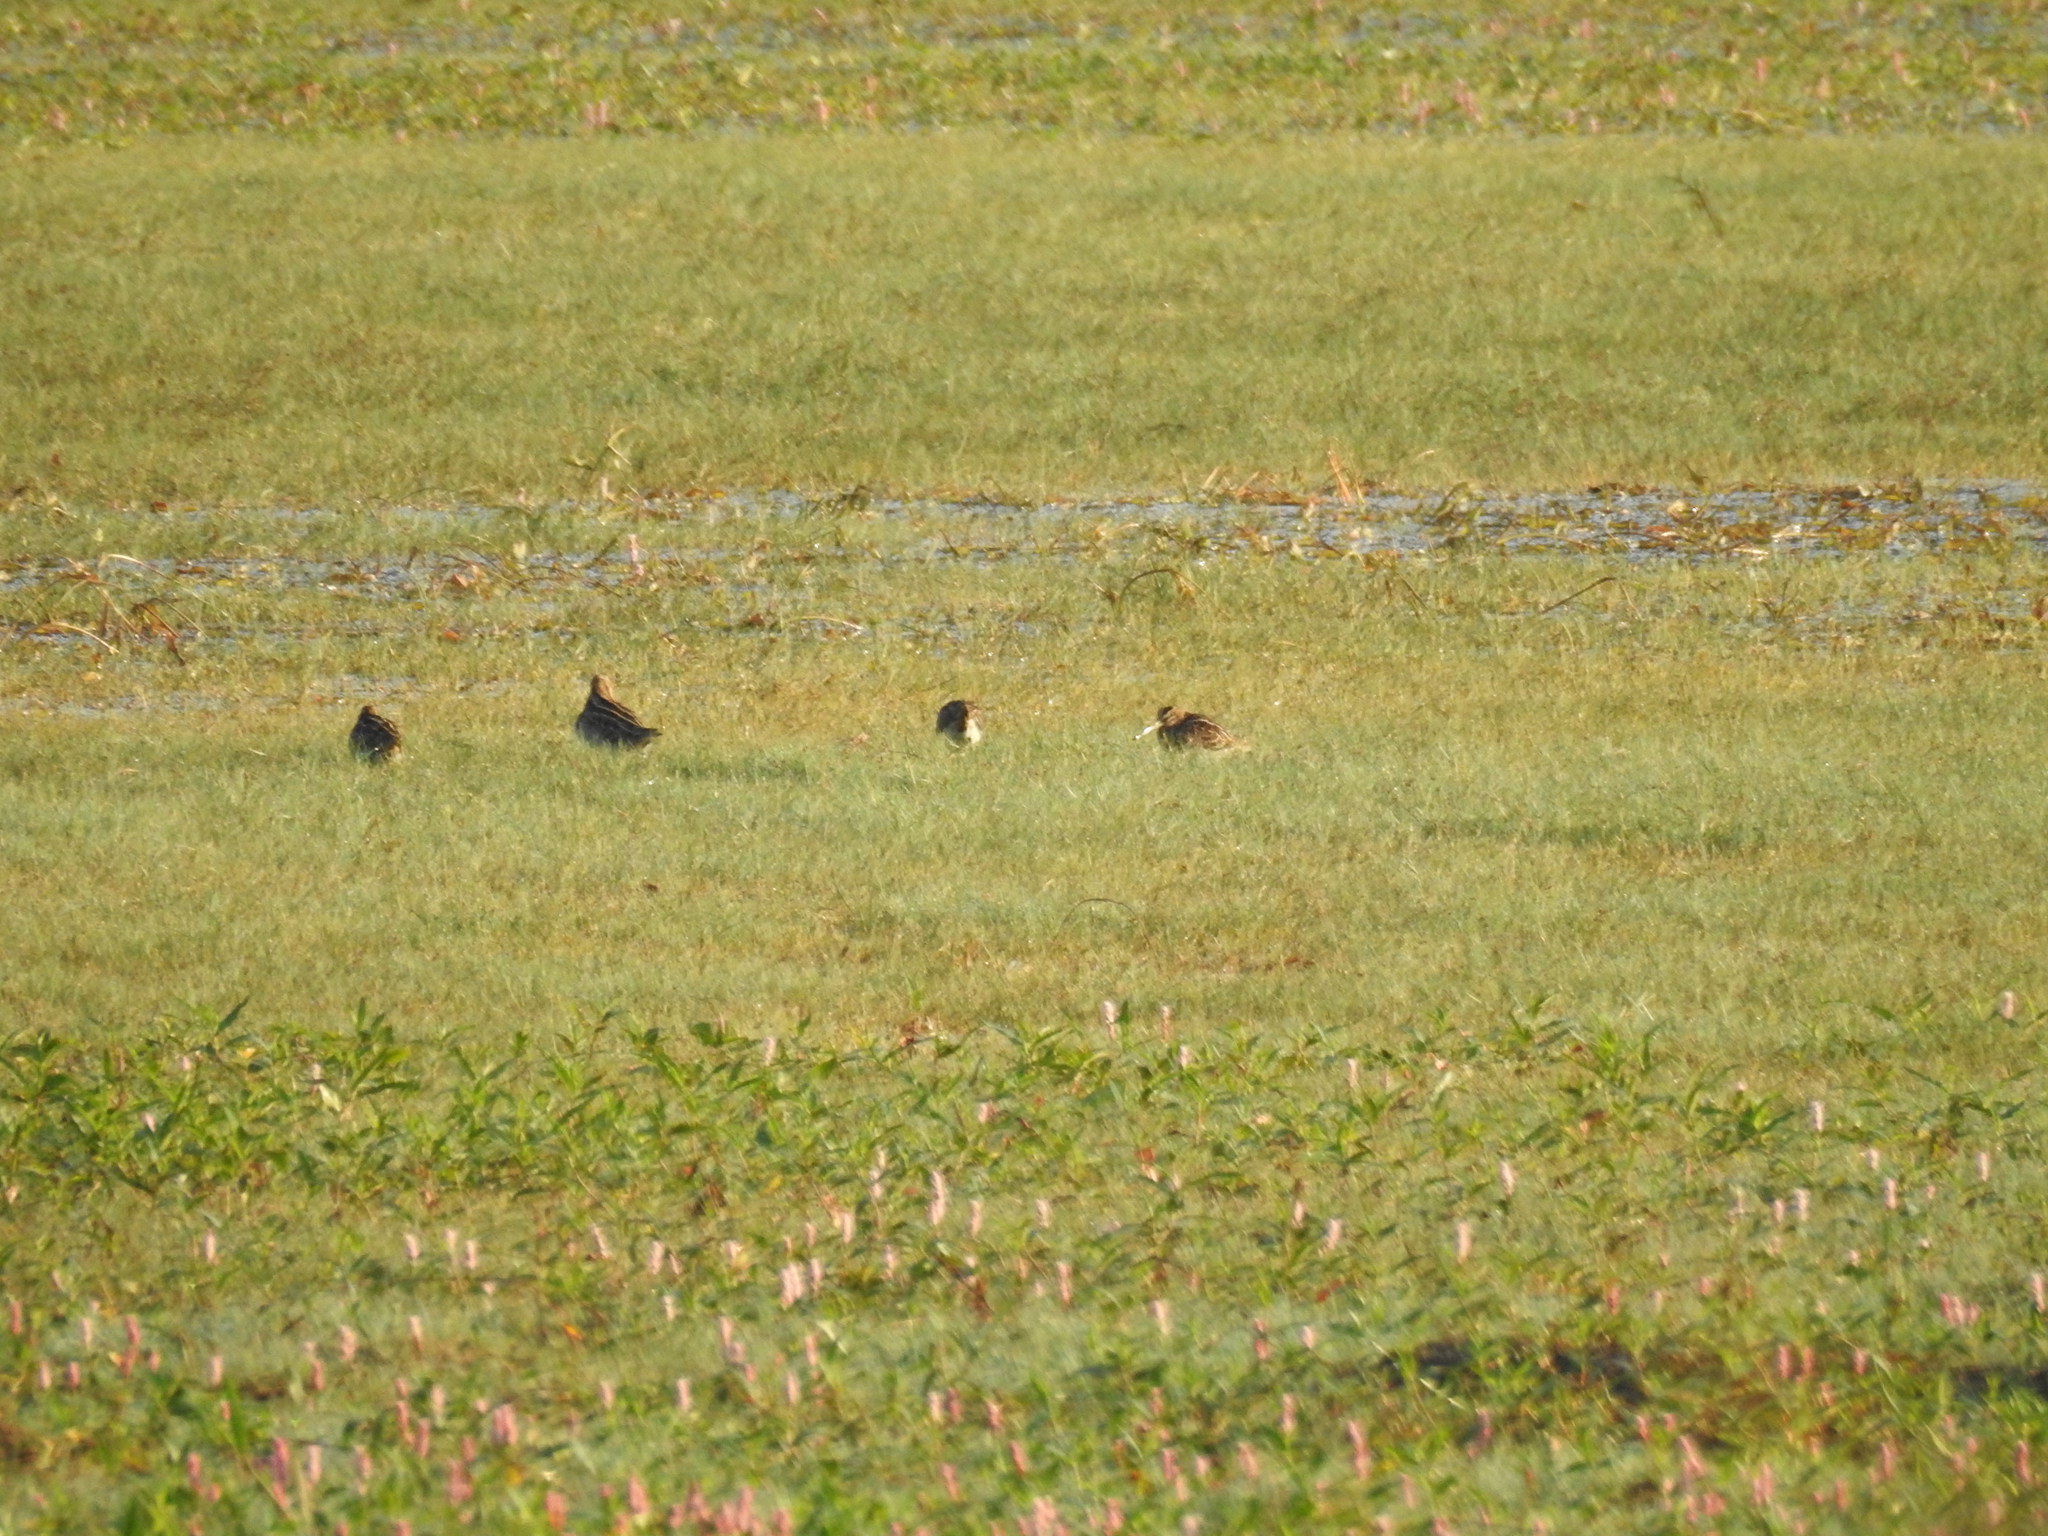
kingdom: Animalia
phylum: Chordata
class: Aves
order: Charadriiformes
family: Scolopacidae
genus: Gallinago
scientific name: Gallinago gallinago
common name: Common snipe
